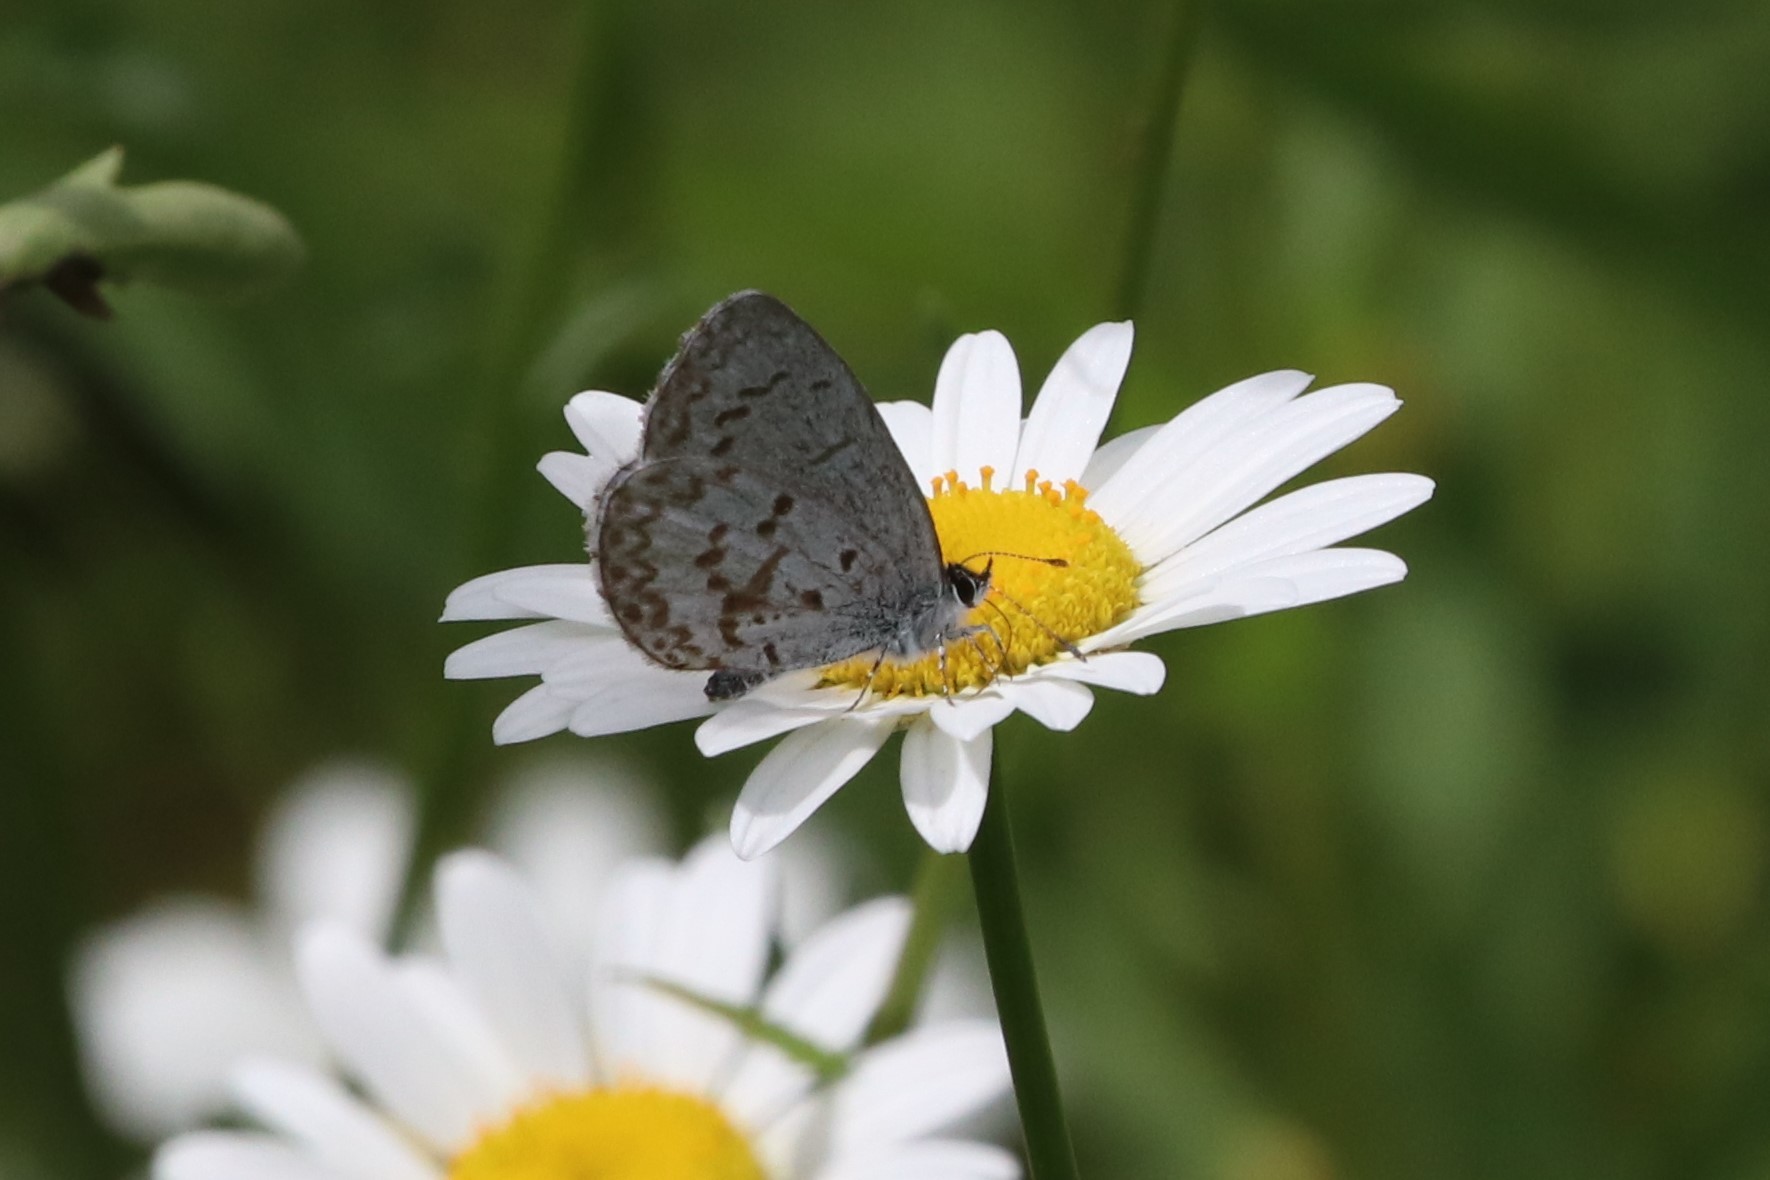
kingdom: Animalia
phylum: Arthropoda
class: Insecta
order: Lepidoptera
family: Lycaenidae
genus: Celastrina
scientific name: Celastrina lucia
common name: Lucia azure
